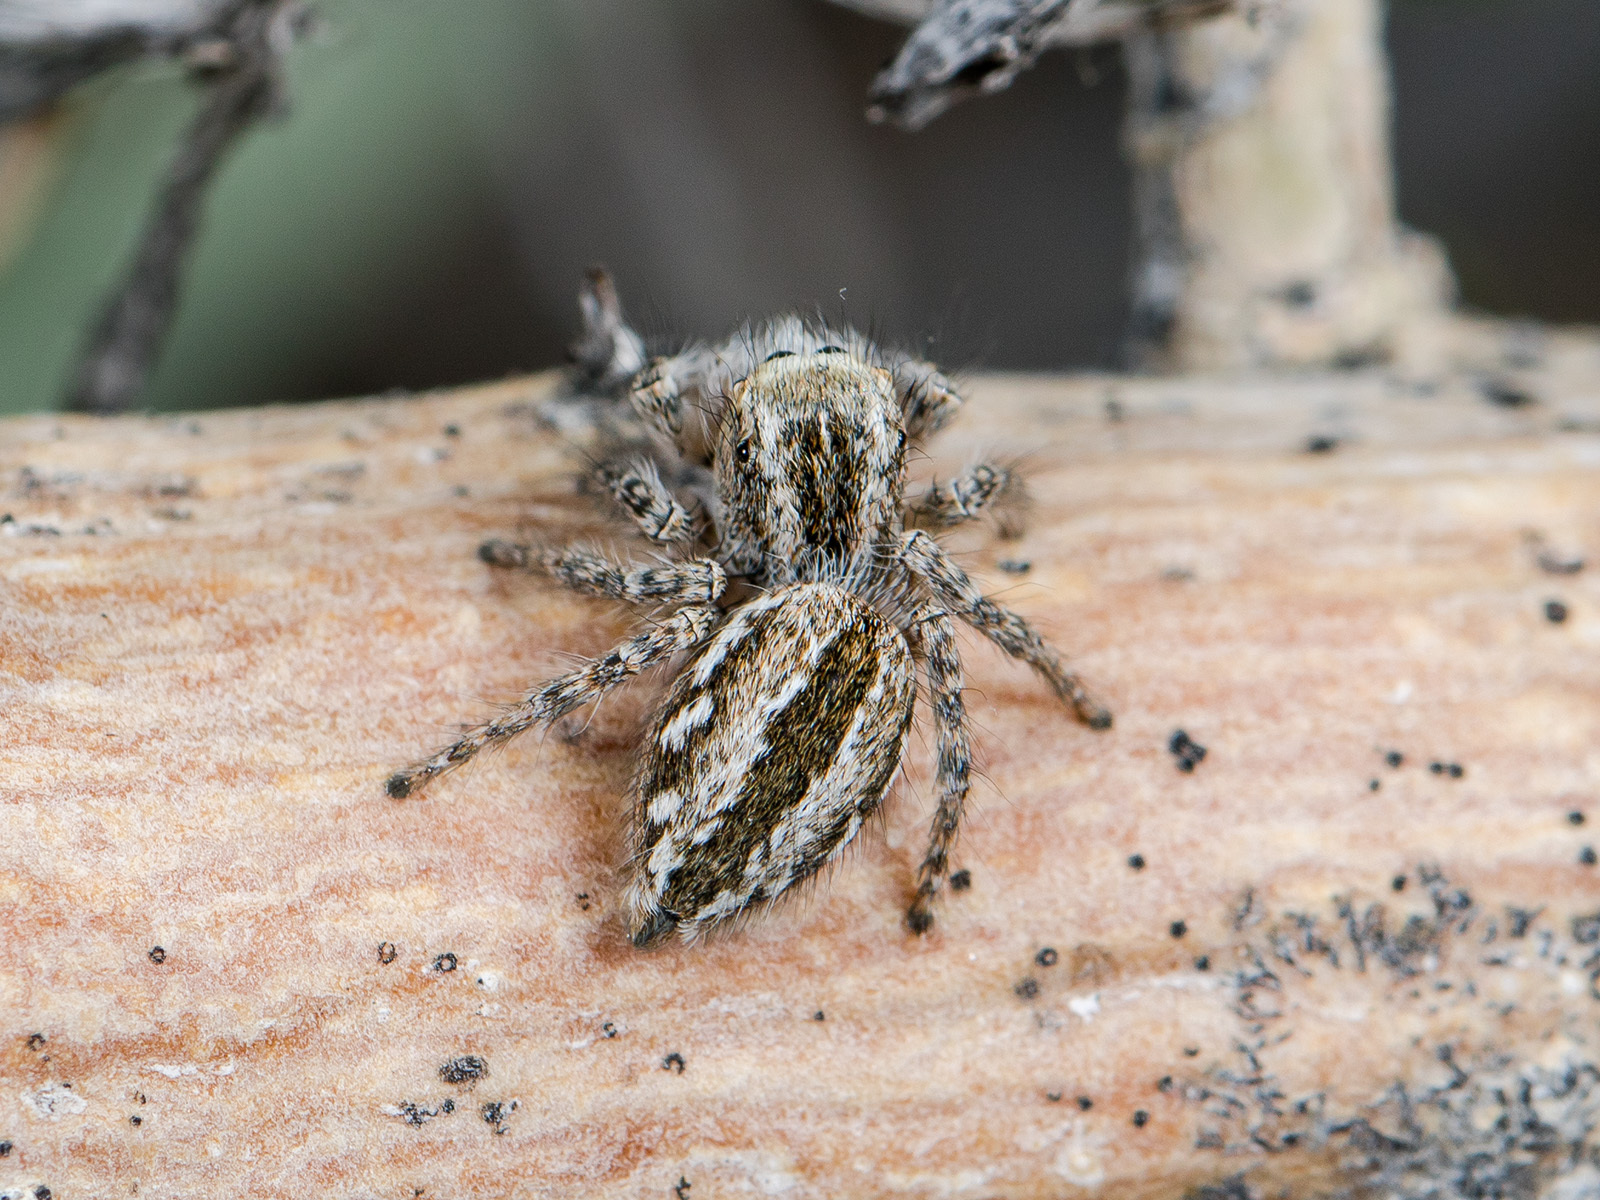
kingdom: Animalia
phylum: Arthropoda
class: Arachnida
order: Araneae
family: Salticidae
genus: Mogrus
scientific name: Mogrus larisae
